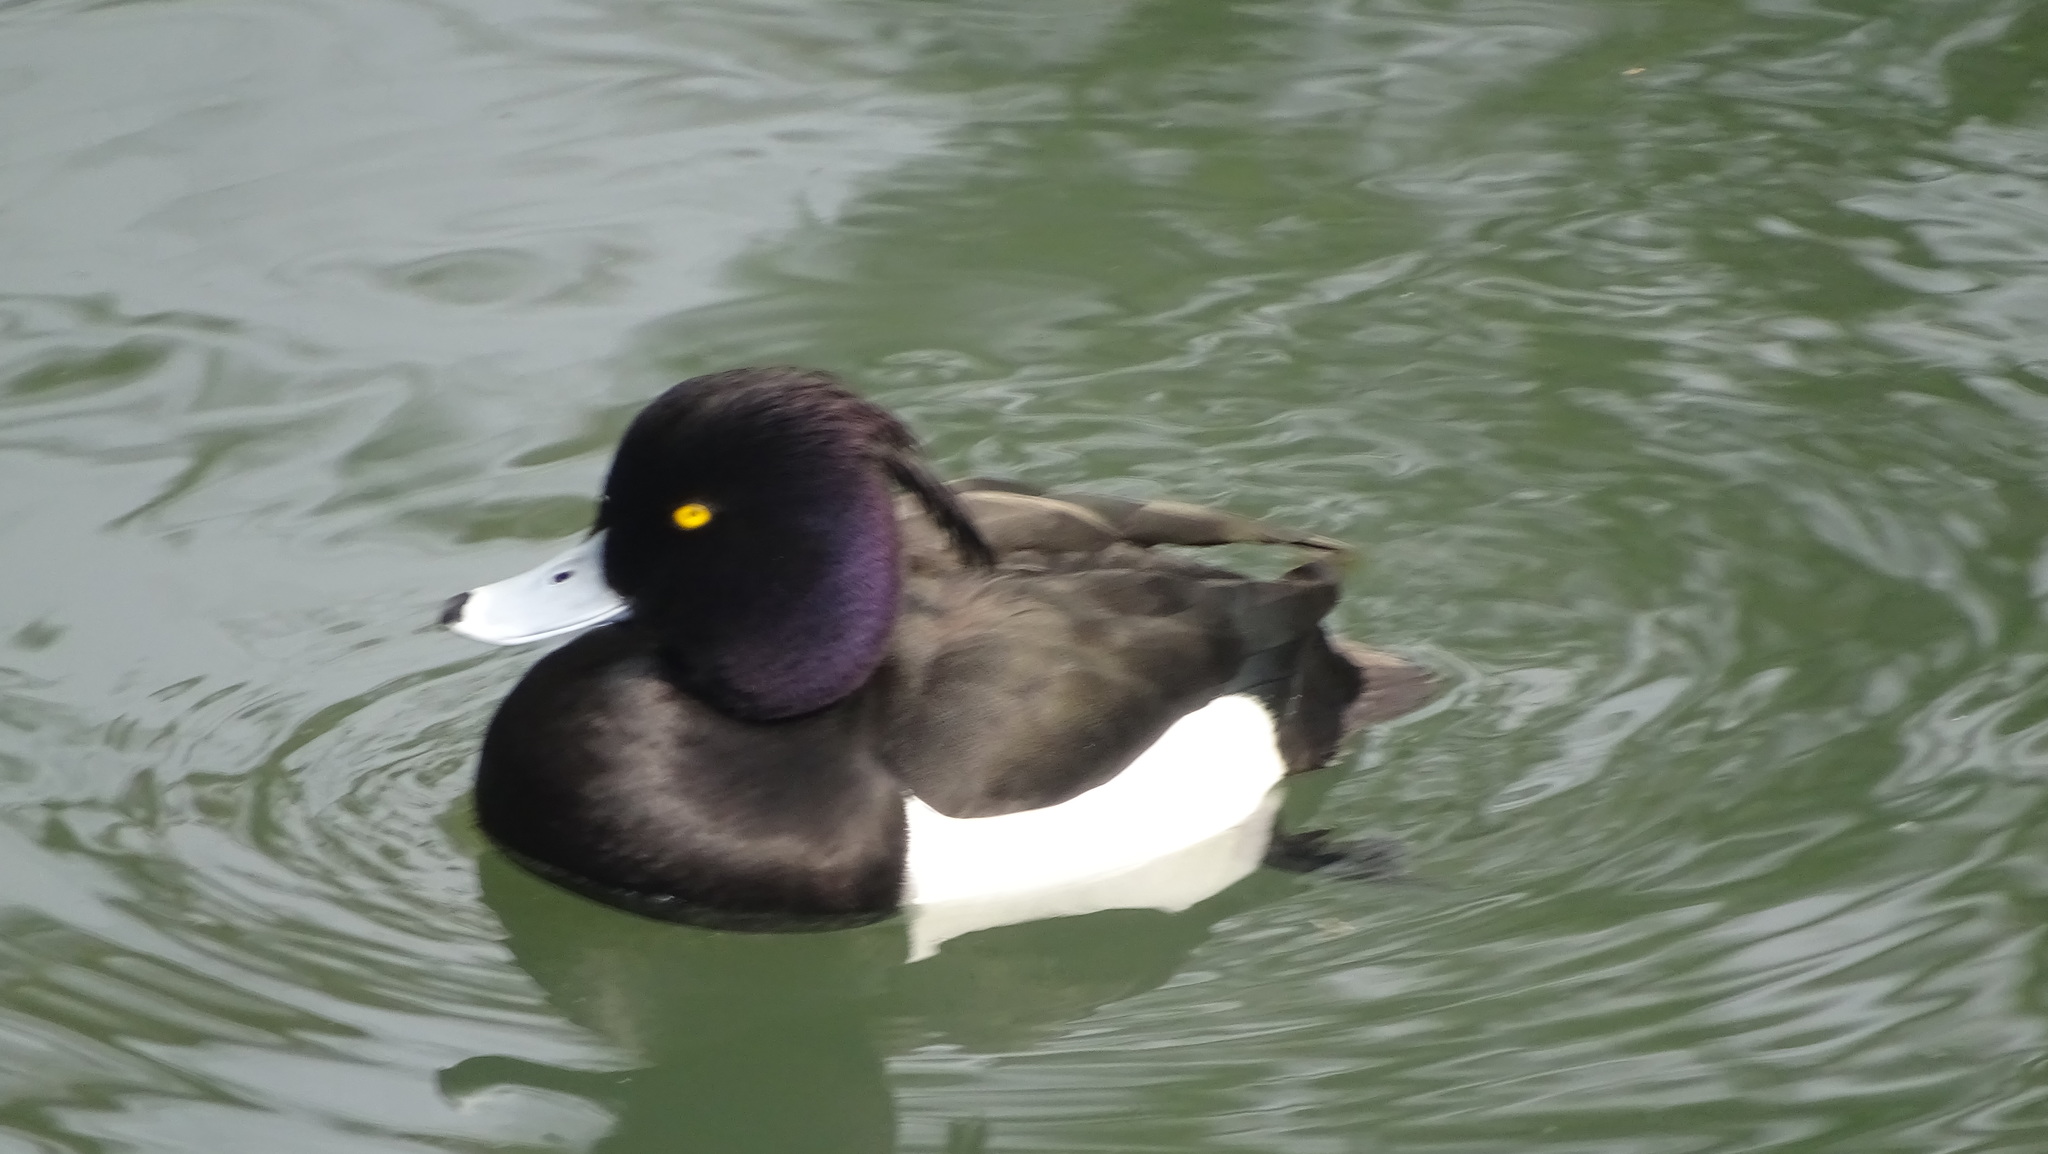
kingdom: Animalia
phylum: Chordata
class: Aves
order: Anseriformes
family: Anatidae
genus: Aythya
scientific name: Aythya fuligula
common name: Tufted duck
